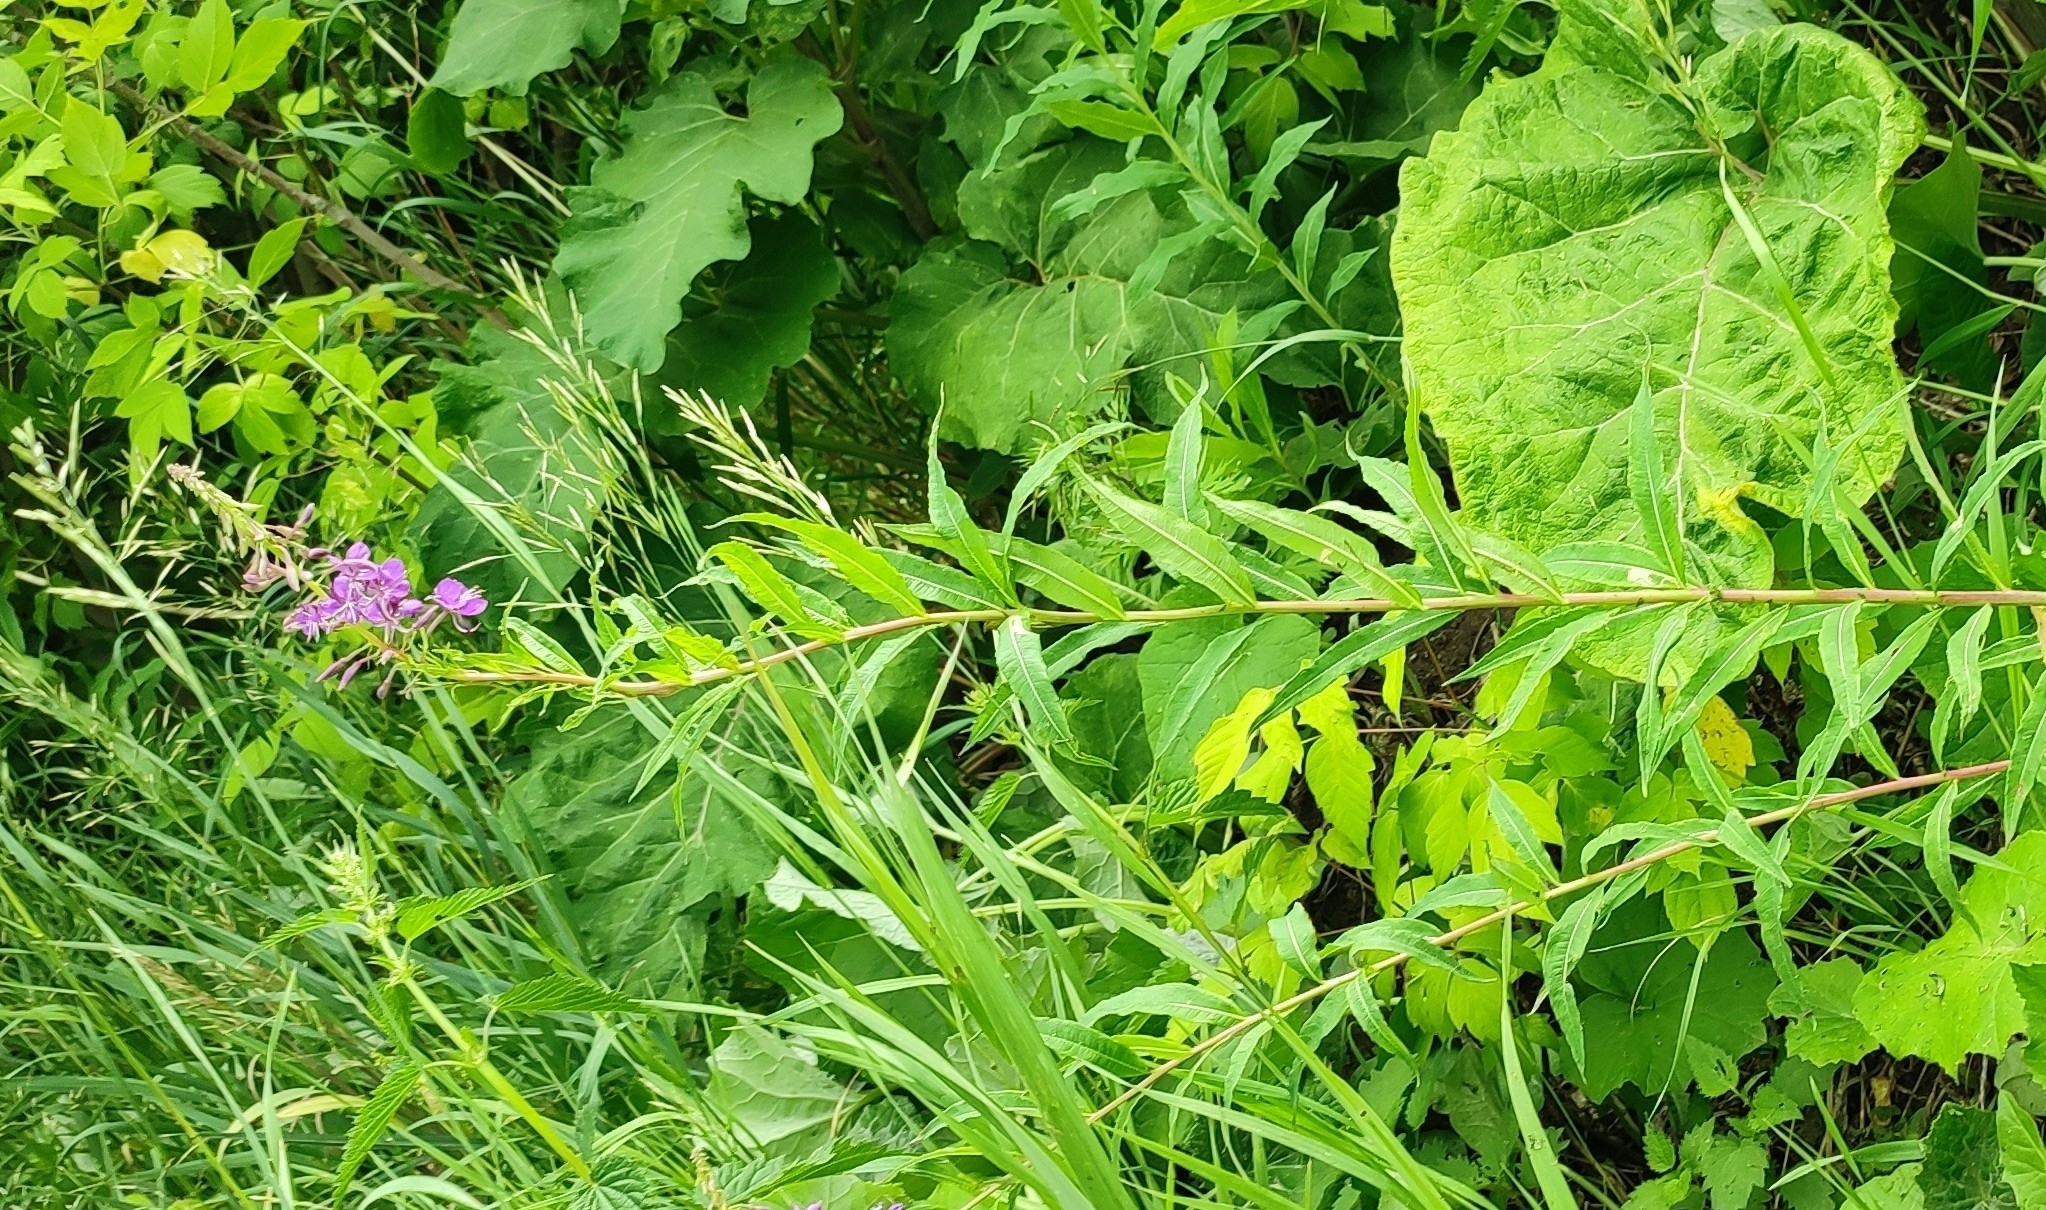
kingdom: Plantae
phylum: Tracheophyta
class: Magnoliopsida
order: Myrtales
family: Onagraceae
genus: Chamaenerion
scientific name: Chamaenerion angustifolium
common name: Fireweed
